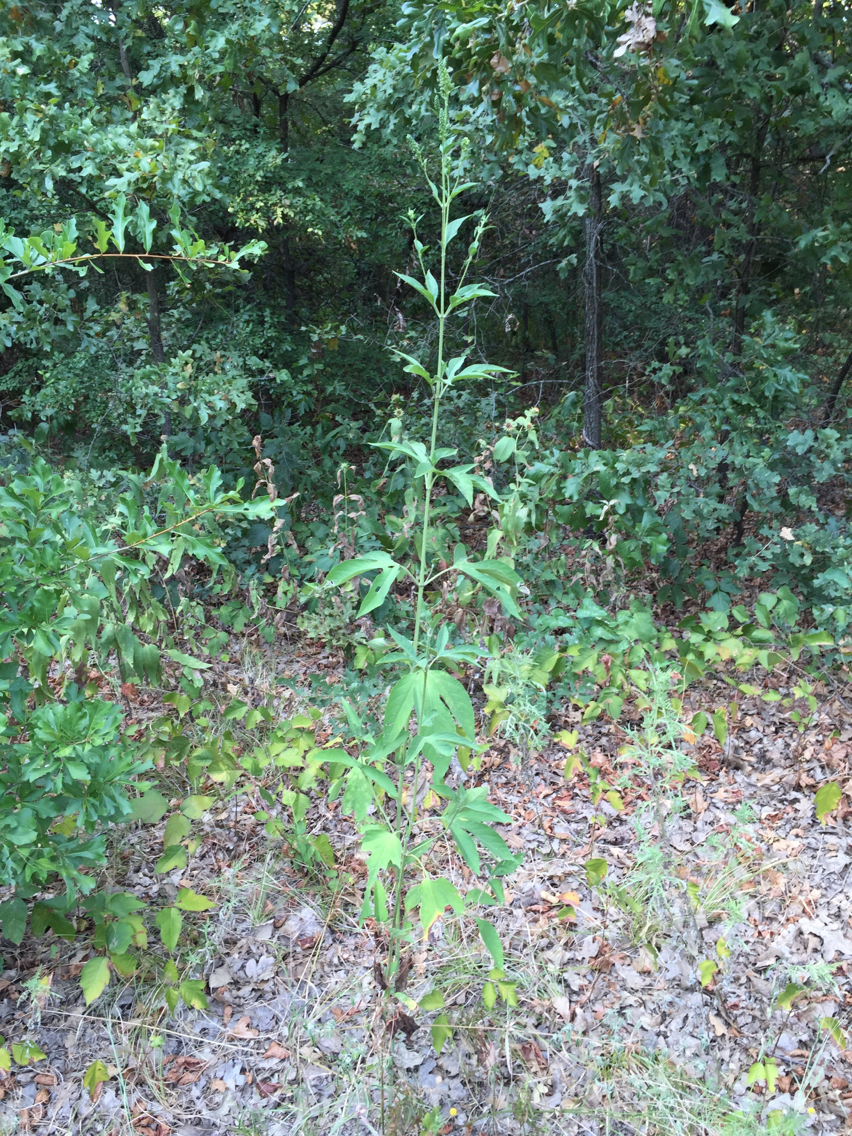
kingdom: Plantae
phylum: Tracheophyta
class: Magnoliopsida
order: Asterales
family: Asteraceae
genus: Ambrosia
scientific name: Ambrosia trifida
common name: Giant ragweed
